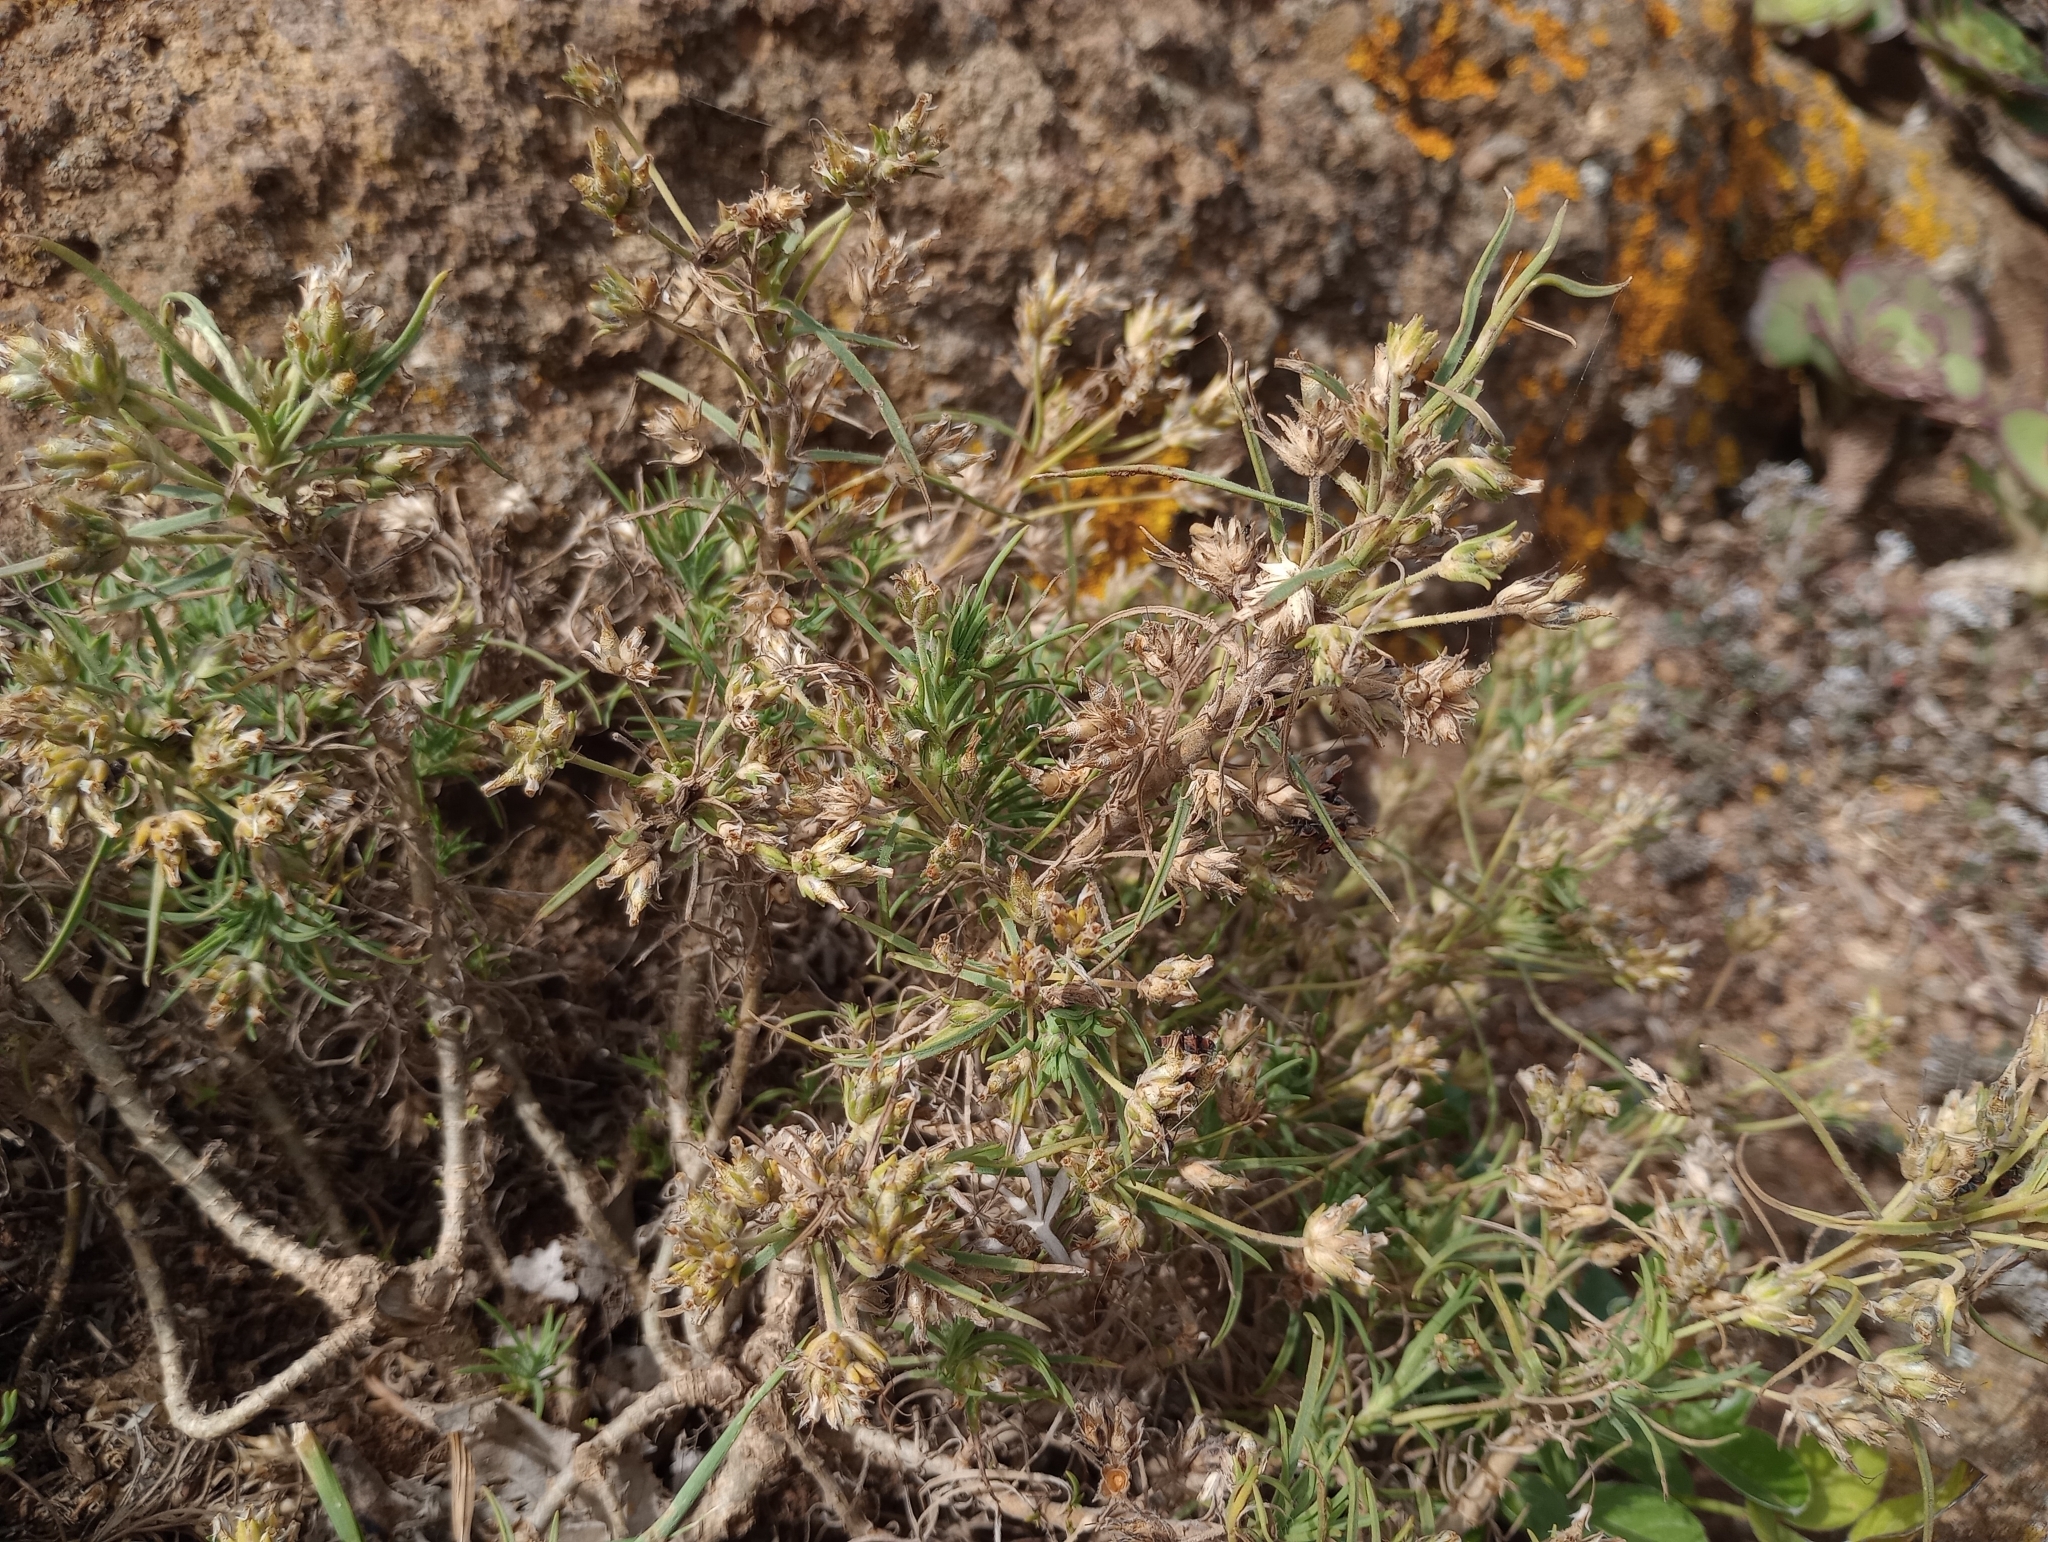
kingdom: Plantae
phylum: Tracheophyta
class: Magnoliopsida
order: Lamiales
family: Plantaginaceae
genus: Plantago
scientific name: Plantago arborescens
